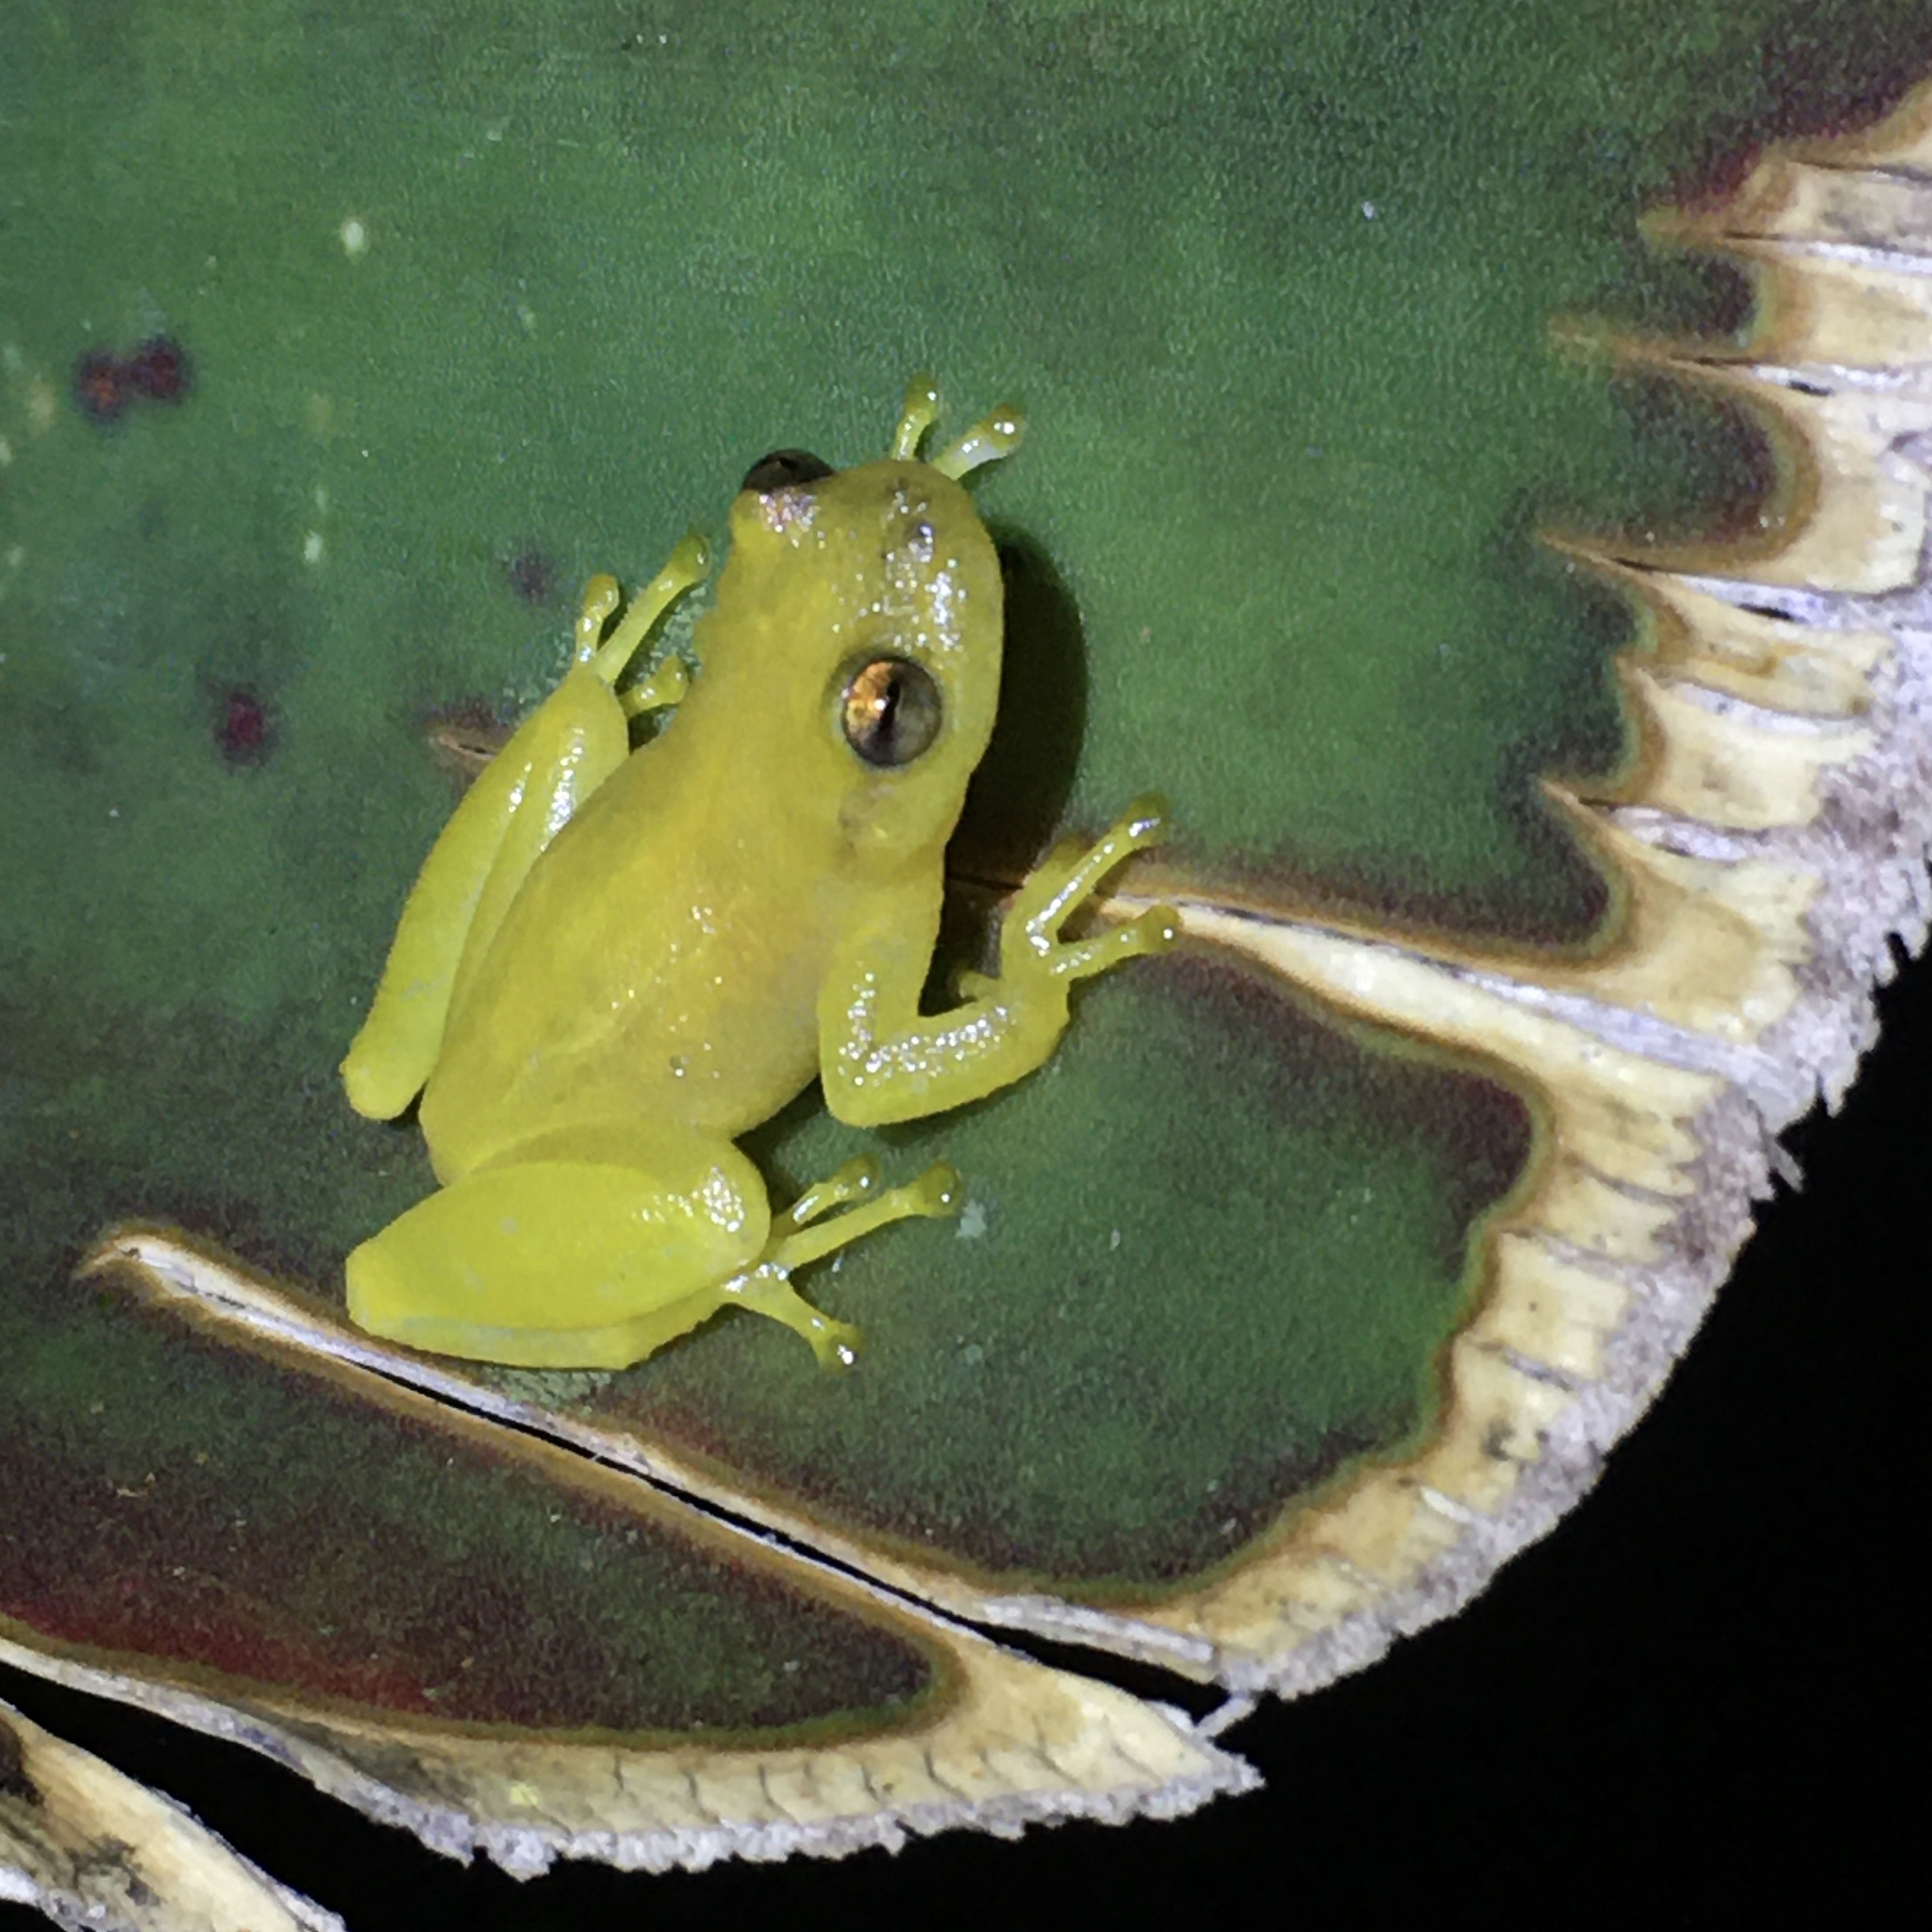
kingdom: Animalia
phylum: Chordata
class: Amphibia
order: Anura
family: Hylidae
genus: Phyllodytes
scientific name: Phyllodytes edelmoi
